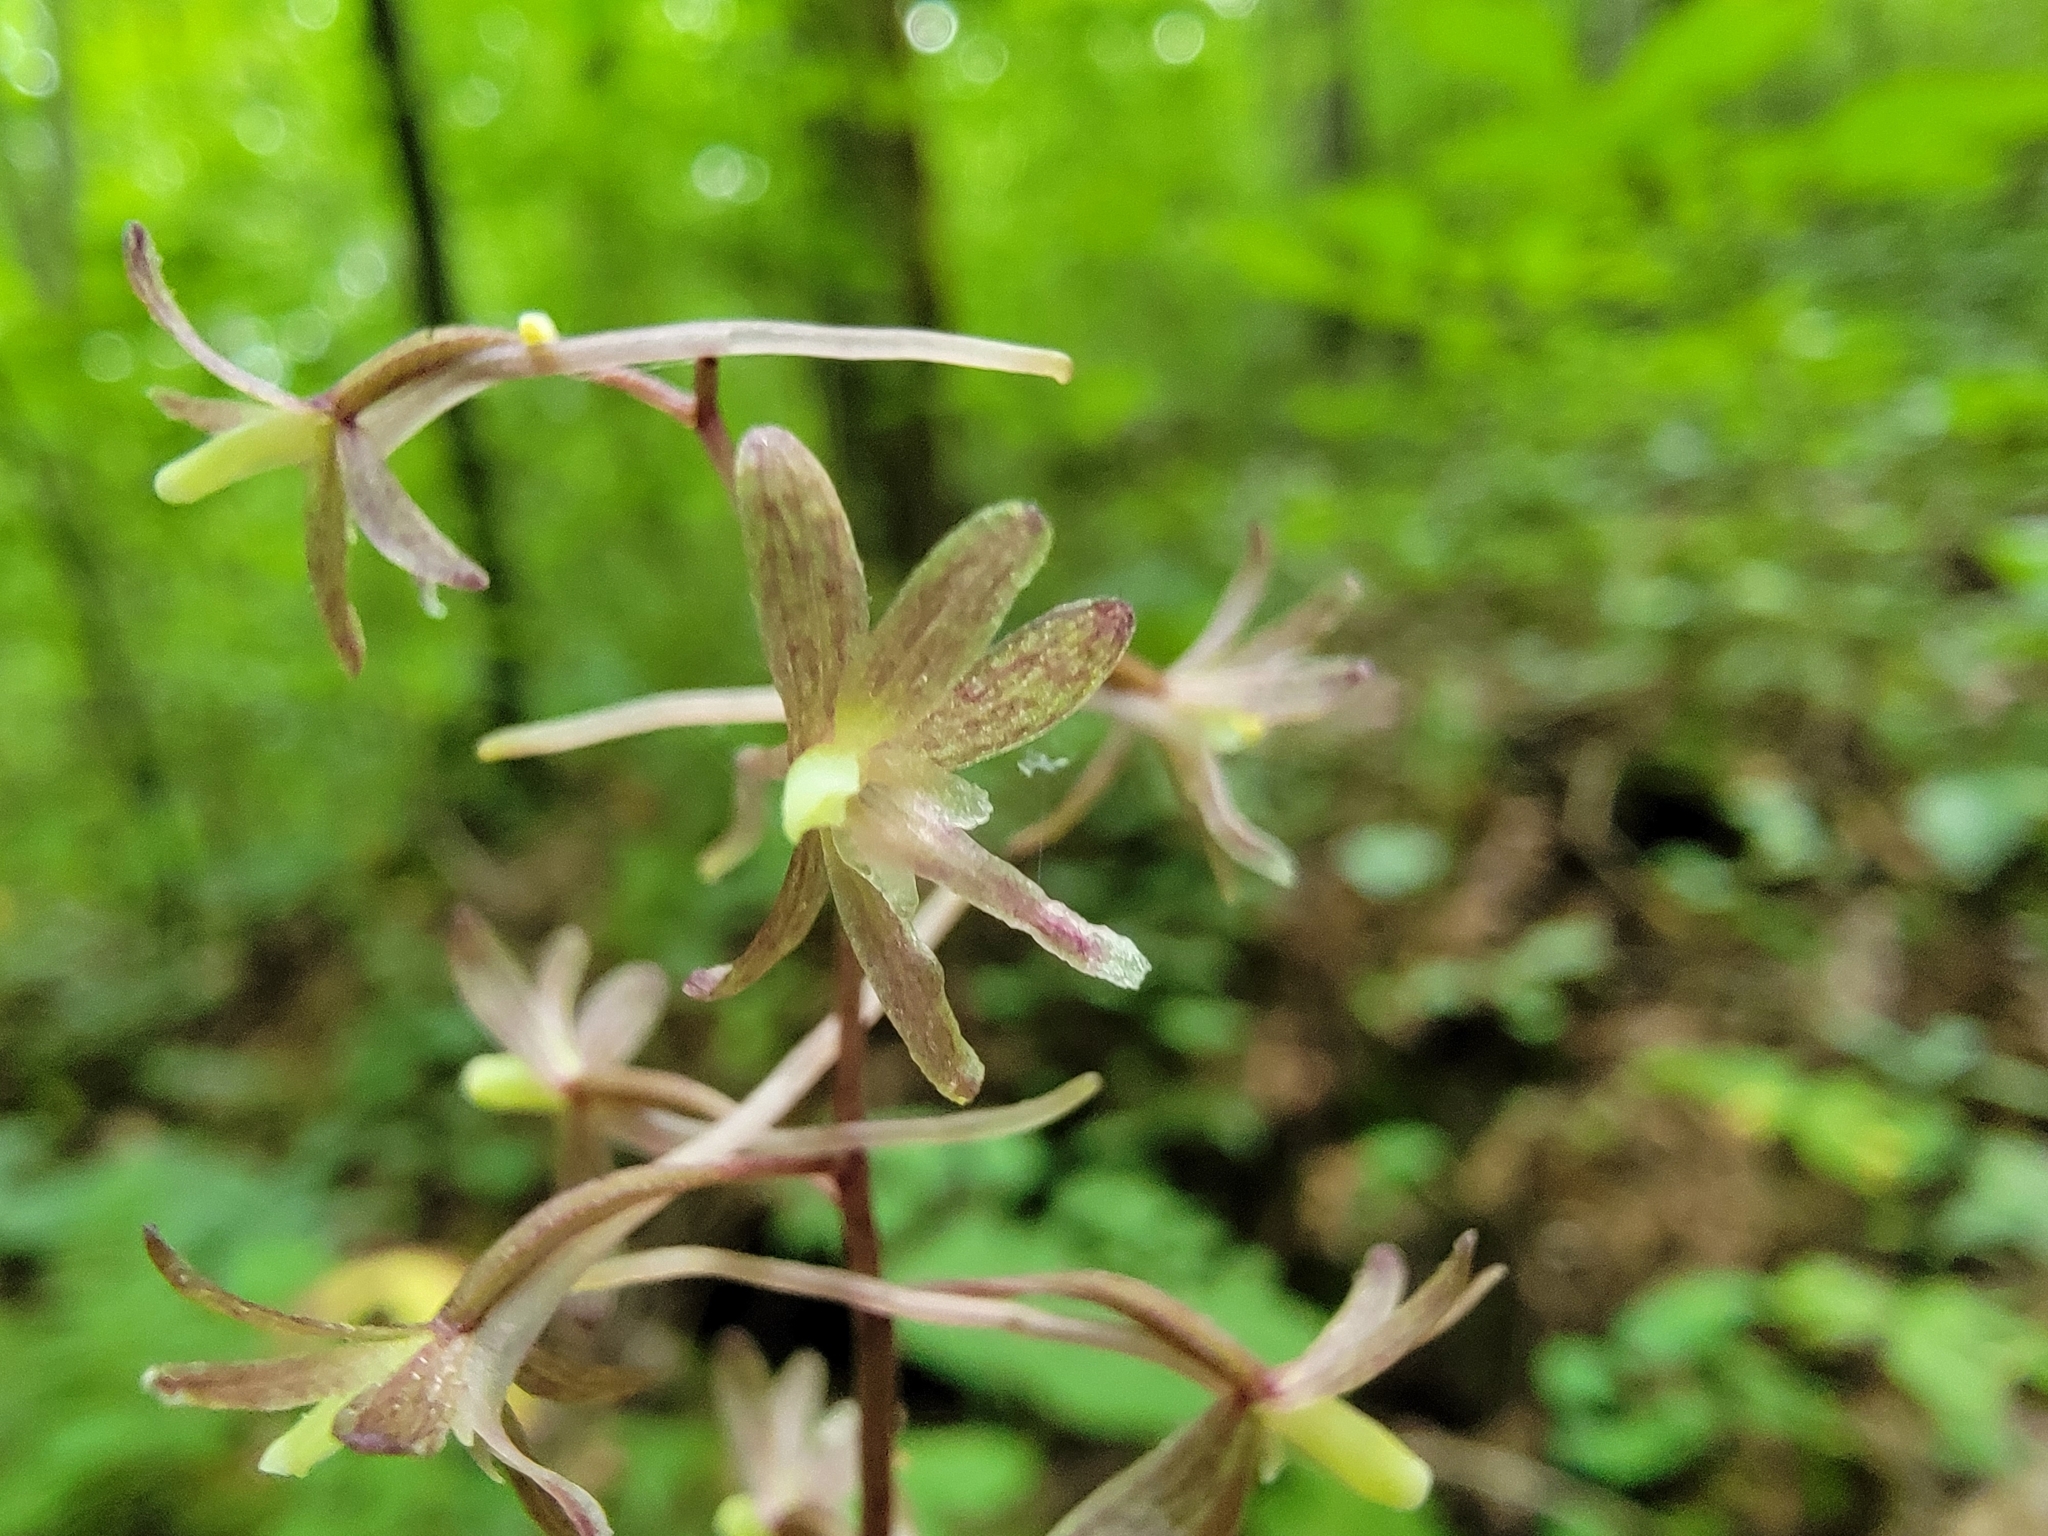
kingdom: Plantae
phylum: Tracheophyta
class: Liliopsida
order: Asparagales
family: Orchidaceae
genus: Tipularia
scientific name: Tipularia discolor
